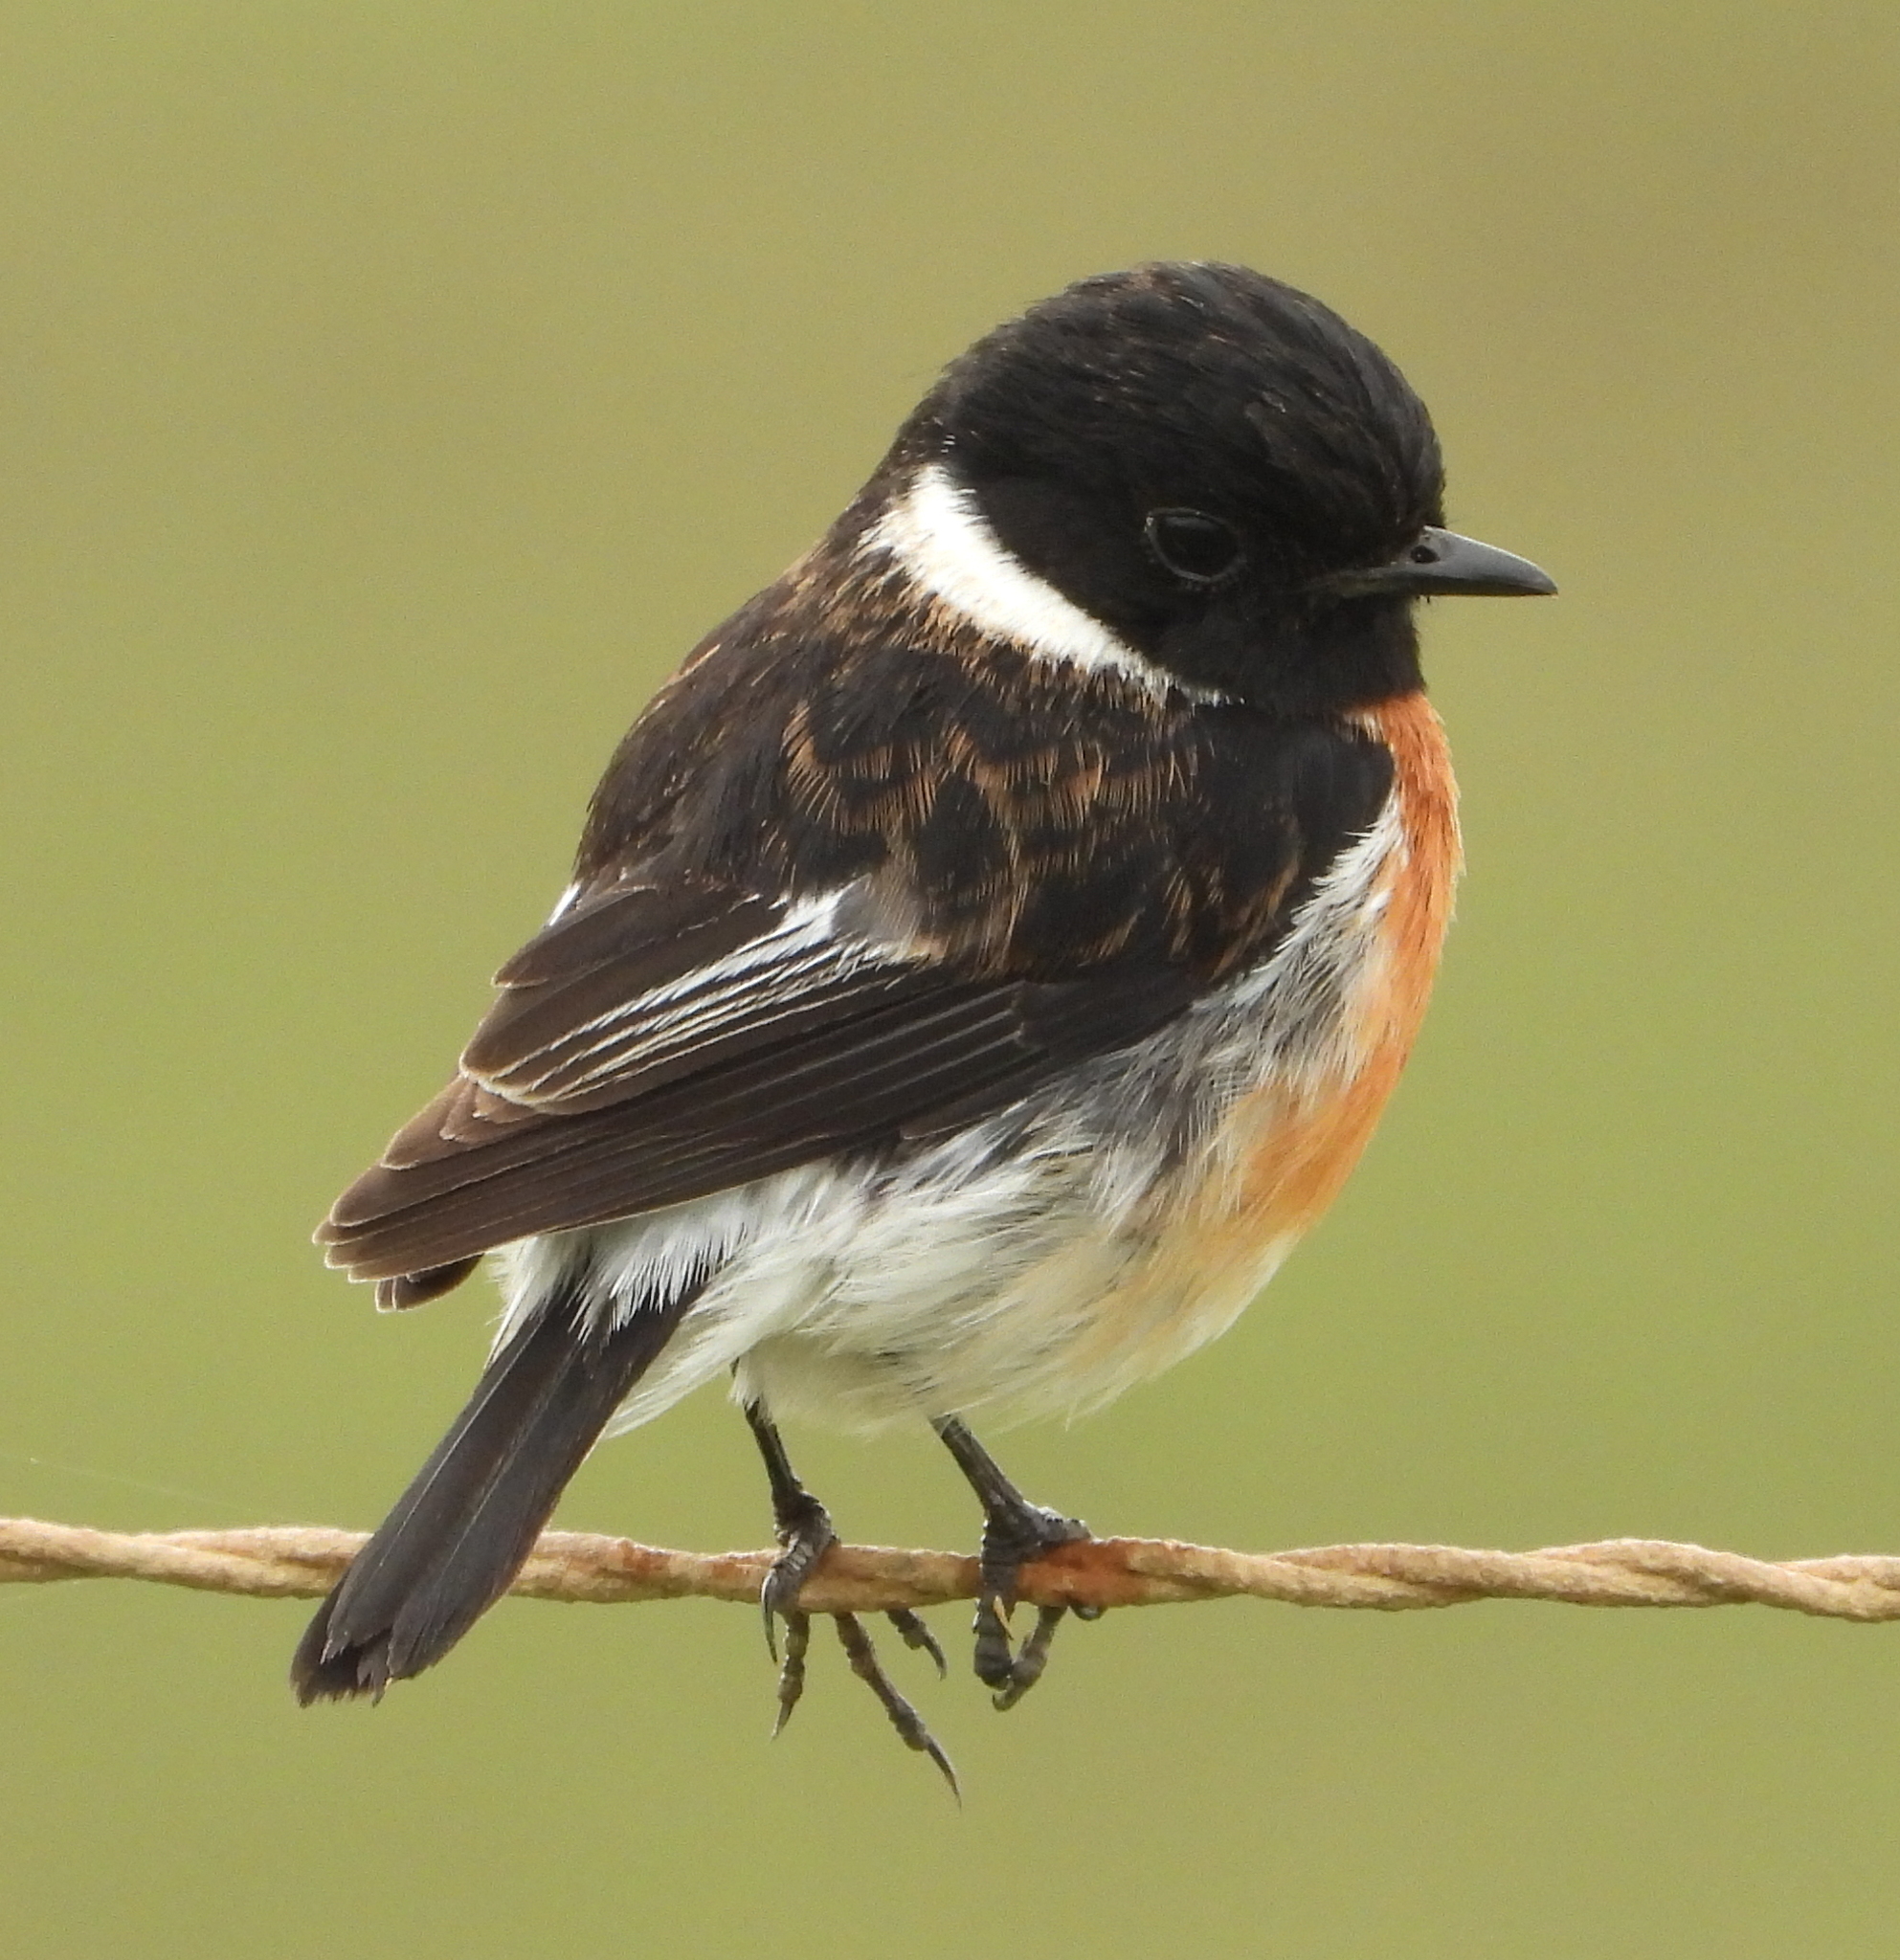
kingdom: Animalia
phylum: Chordata
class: Aves
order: Passeriformes
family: Muscicapidae
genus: Saxicola
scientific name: Saxicola torquatus
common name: African stonechat
